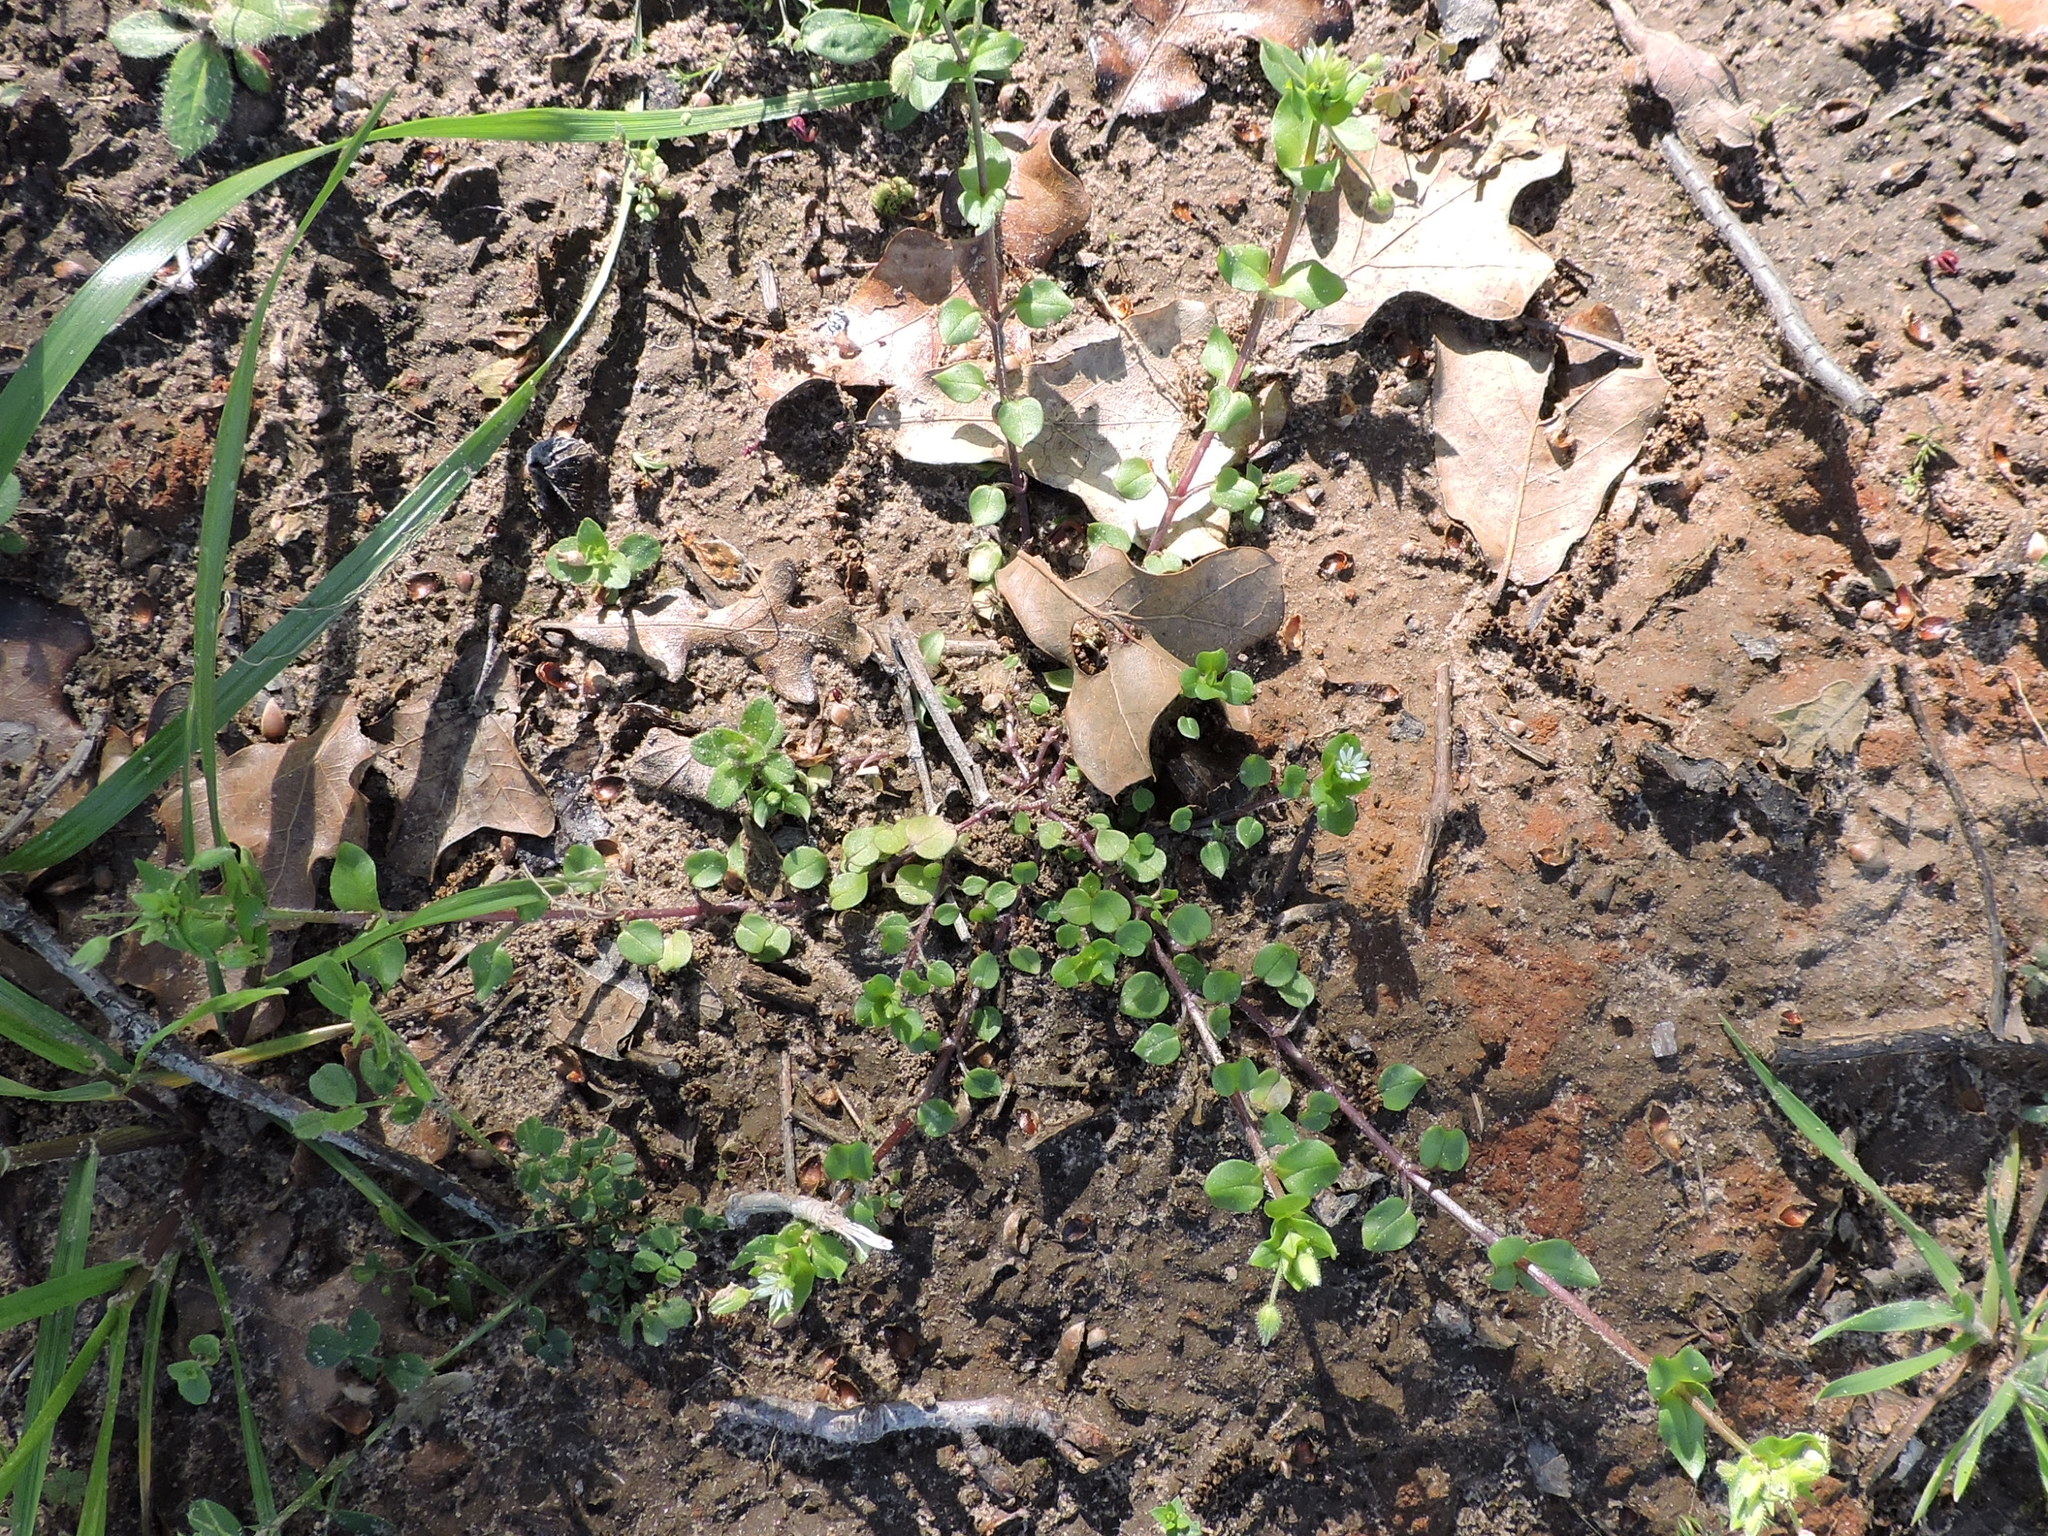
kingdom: Plantae
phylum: Tracheophyta
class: Magnoliopsida
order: Caryophyllales
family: Caryophyllaceae
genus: Stellaria
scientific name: Stellaria media
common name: Common chickweed
